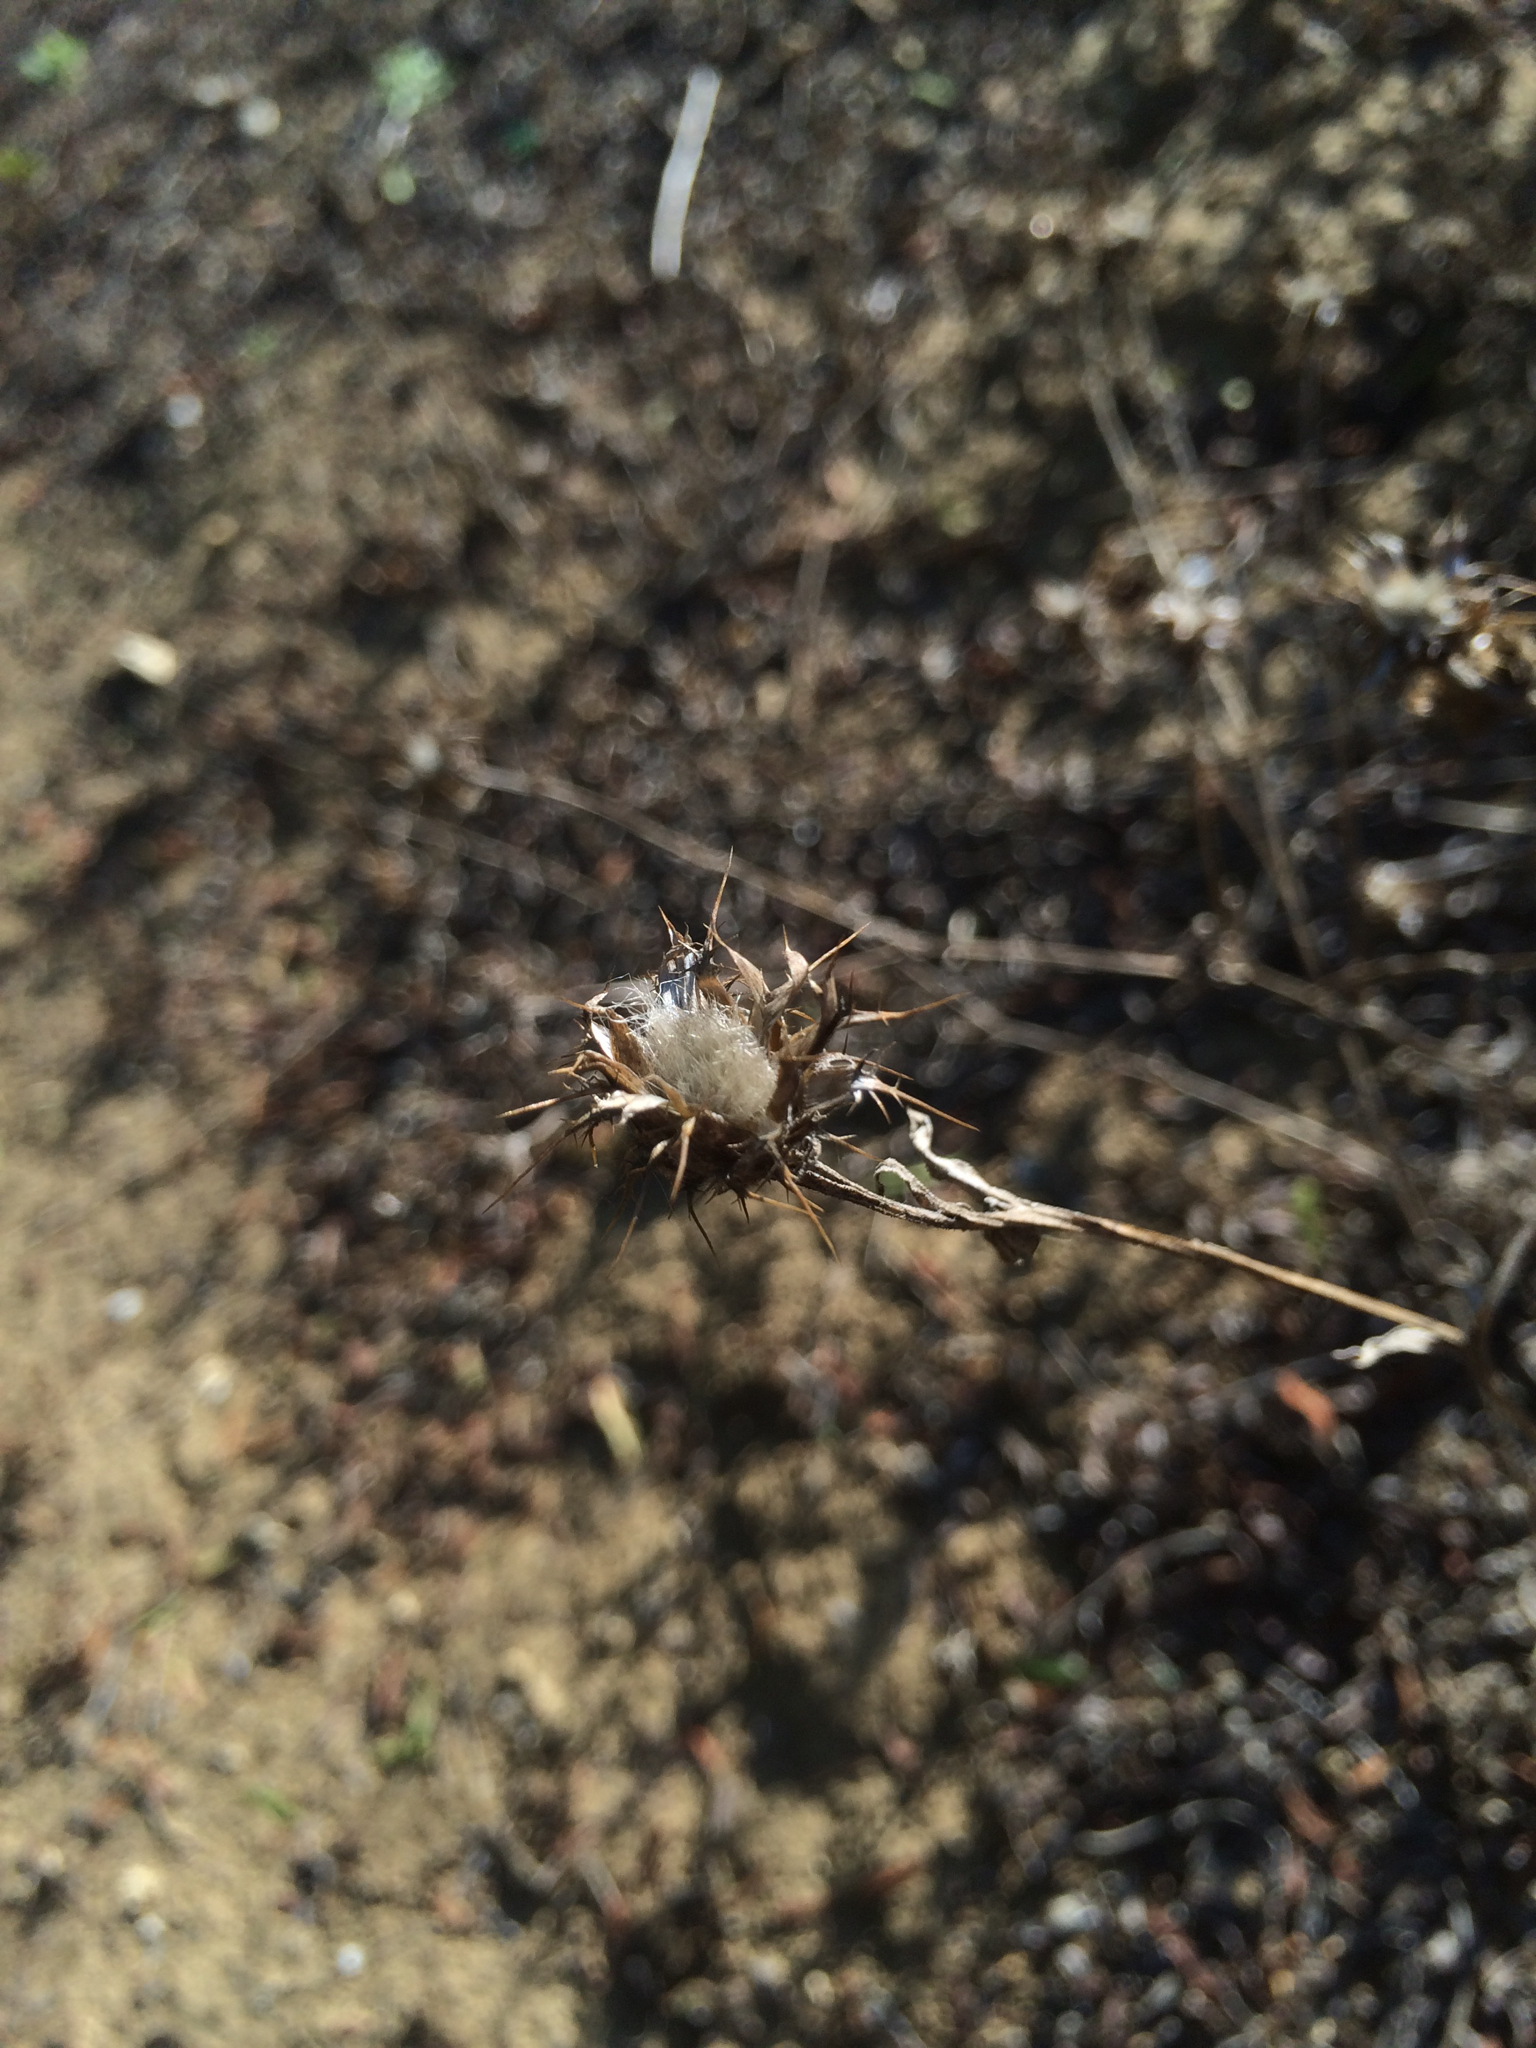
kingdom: Plantae
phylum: Tracheophyta
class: Magnoliopsida
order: Asterales
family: Asteraceae
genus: Centaurea
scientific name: Centaurea melitensis
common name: Maltese star-thistle
